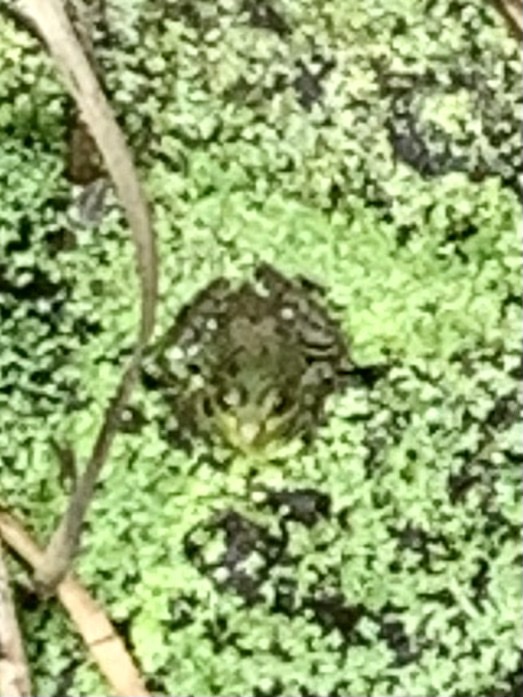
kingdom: Animalia
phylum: Chordata
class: Amphibia
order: Anura
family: Ranidae
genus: Lithobates
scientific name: Lithobates clamitans
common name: Green frog
